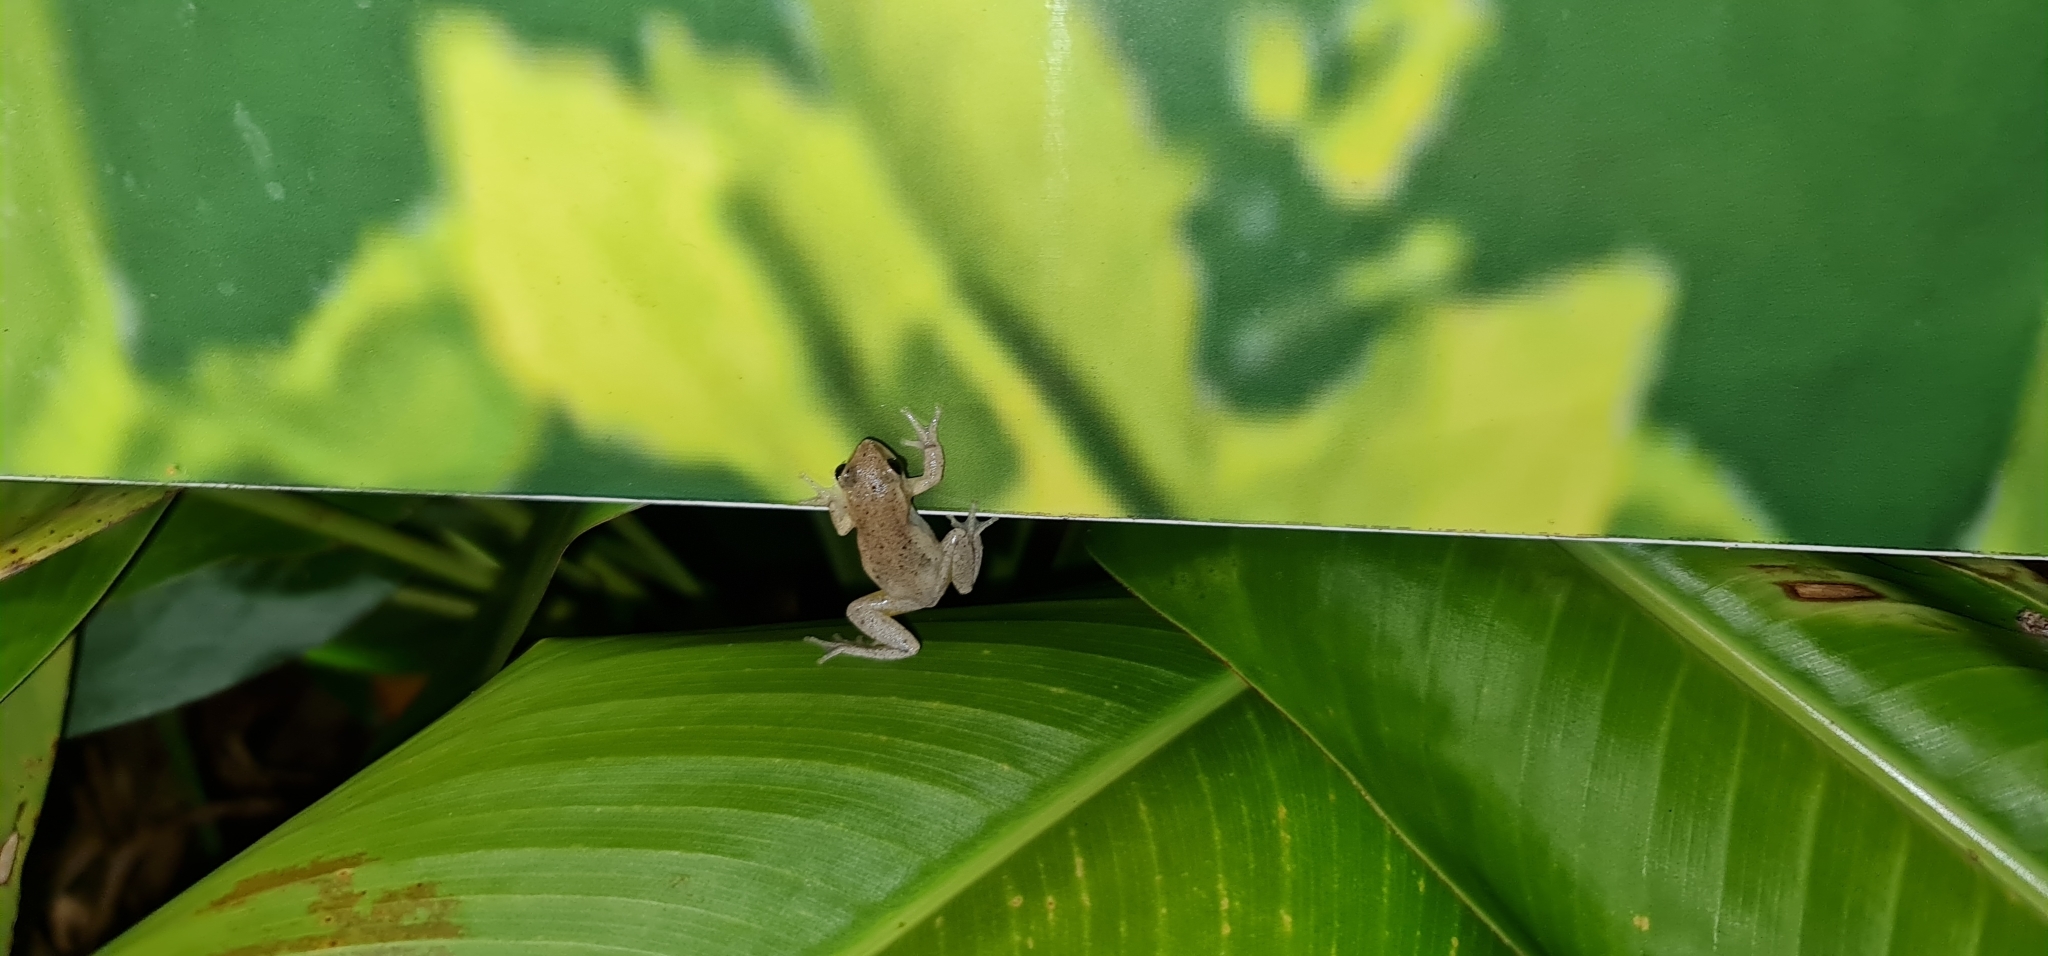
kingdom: Animalia
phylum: Chordata
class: Amphibia
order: Anura
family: Pelodryadidae
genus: Litoria
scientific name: Litoria rubella
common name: Desert tree frog
